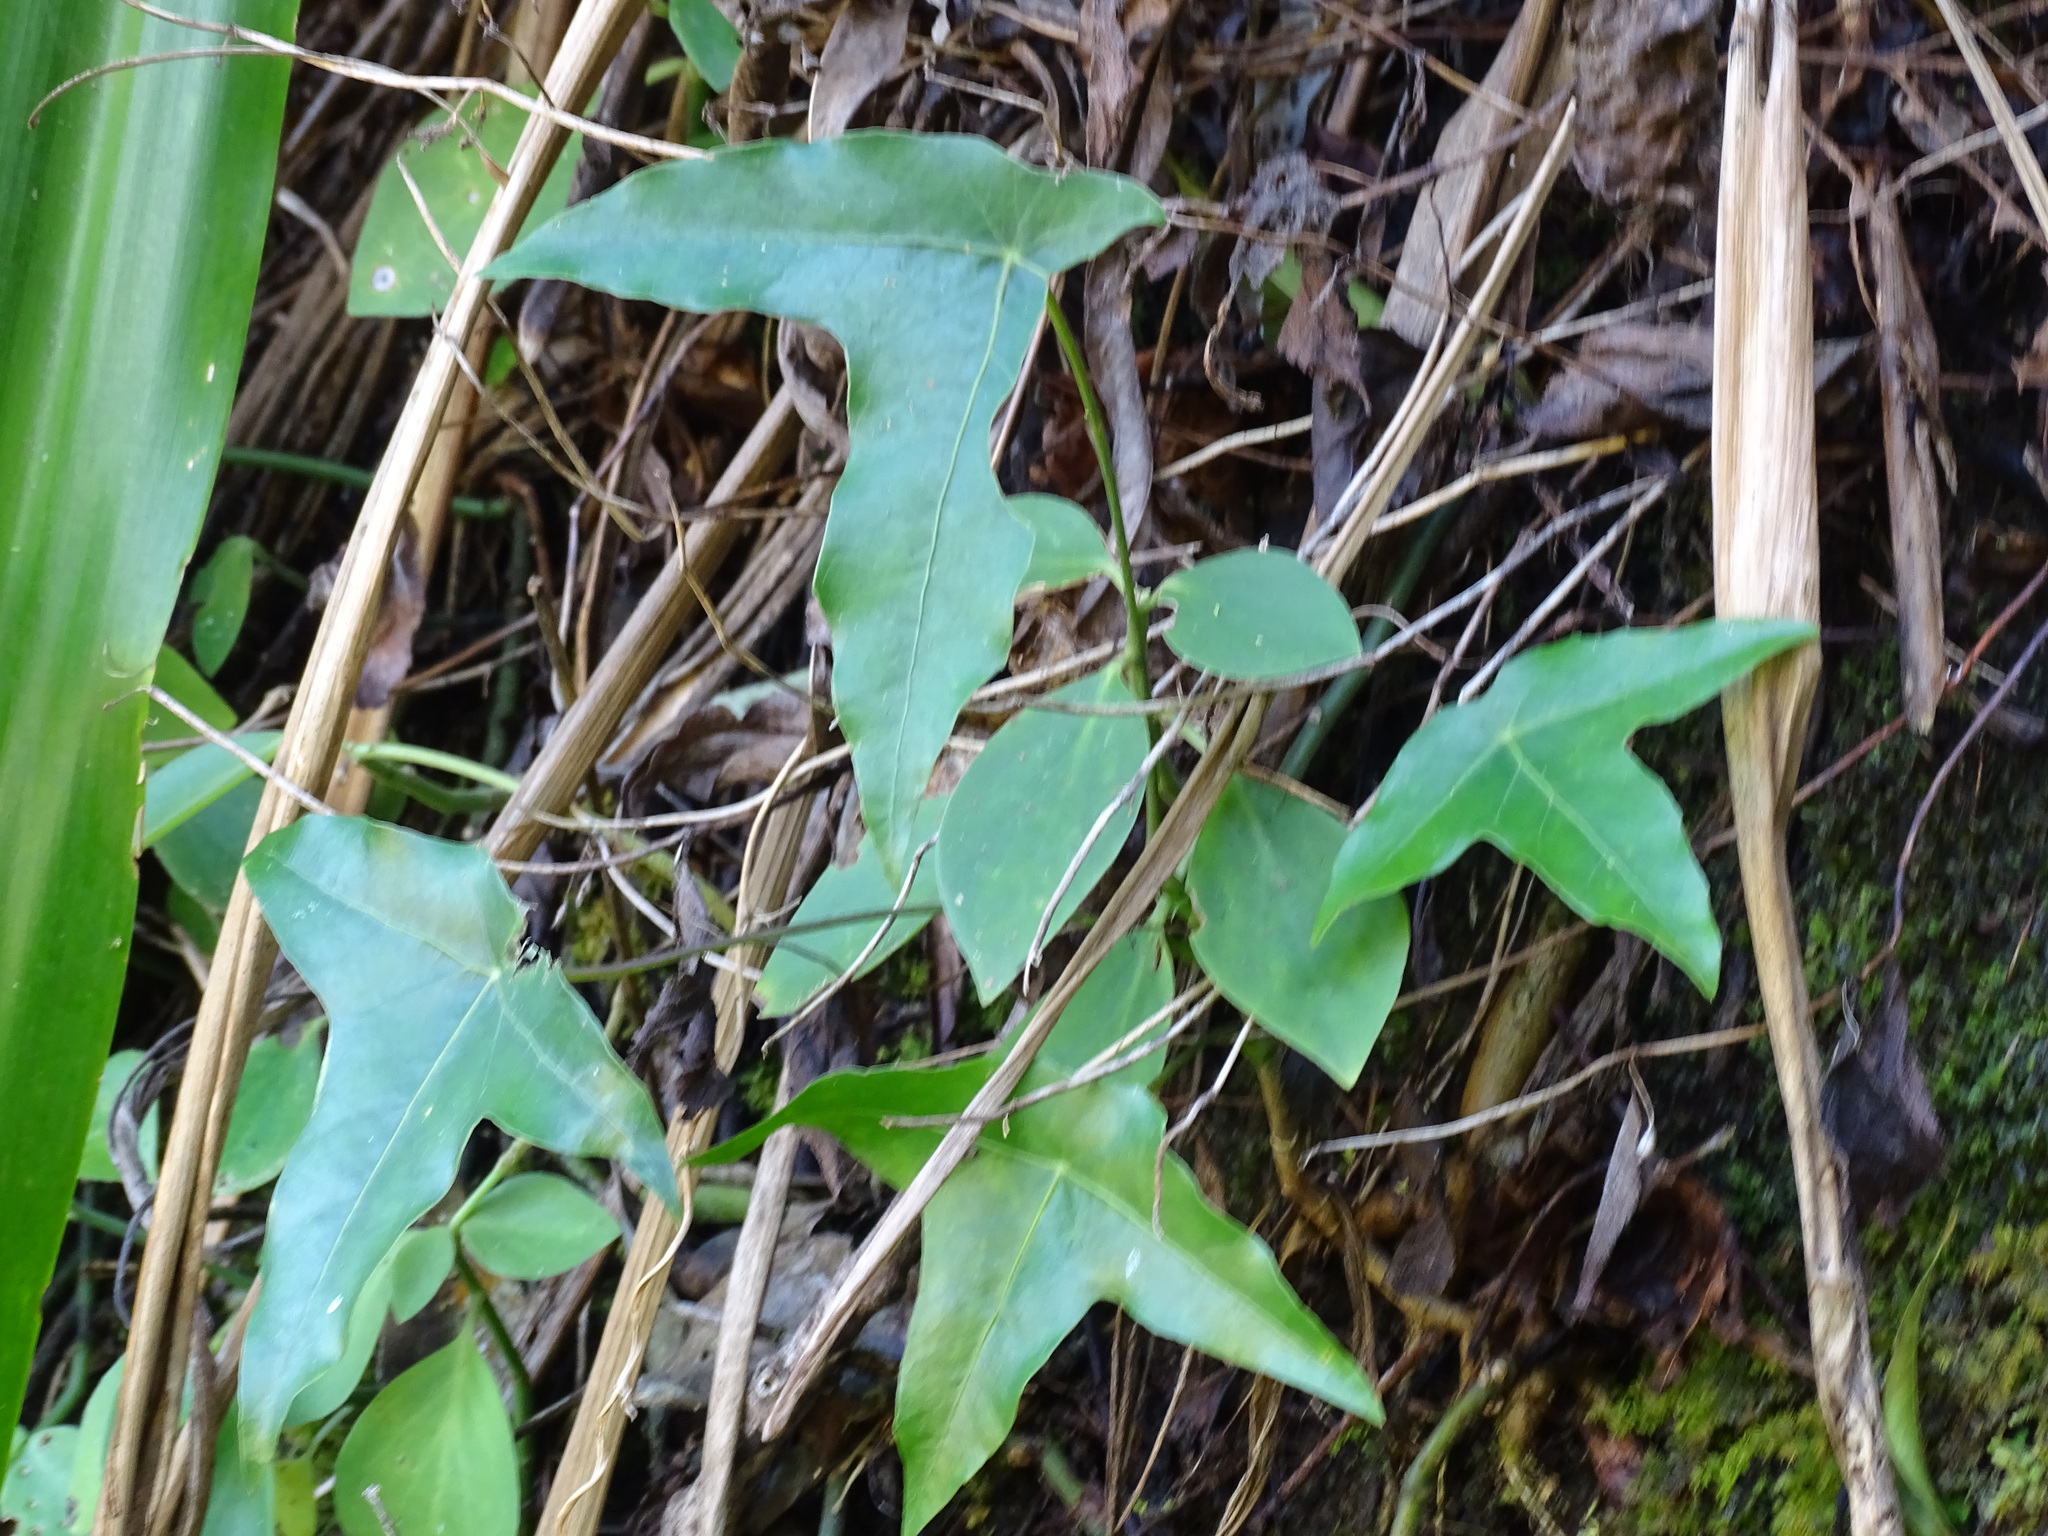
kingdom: Plantae
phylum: Tracheophyta
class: Magnoliopsida
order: Apiales
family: Araliaceae
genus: Oreopanax
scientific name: Oreopanax sanderianus
